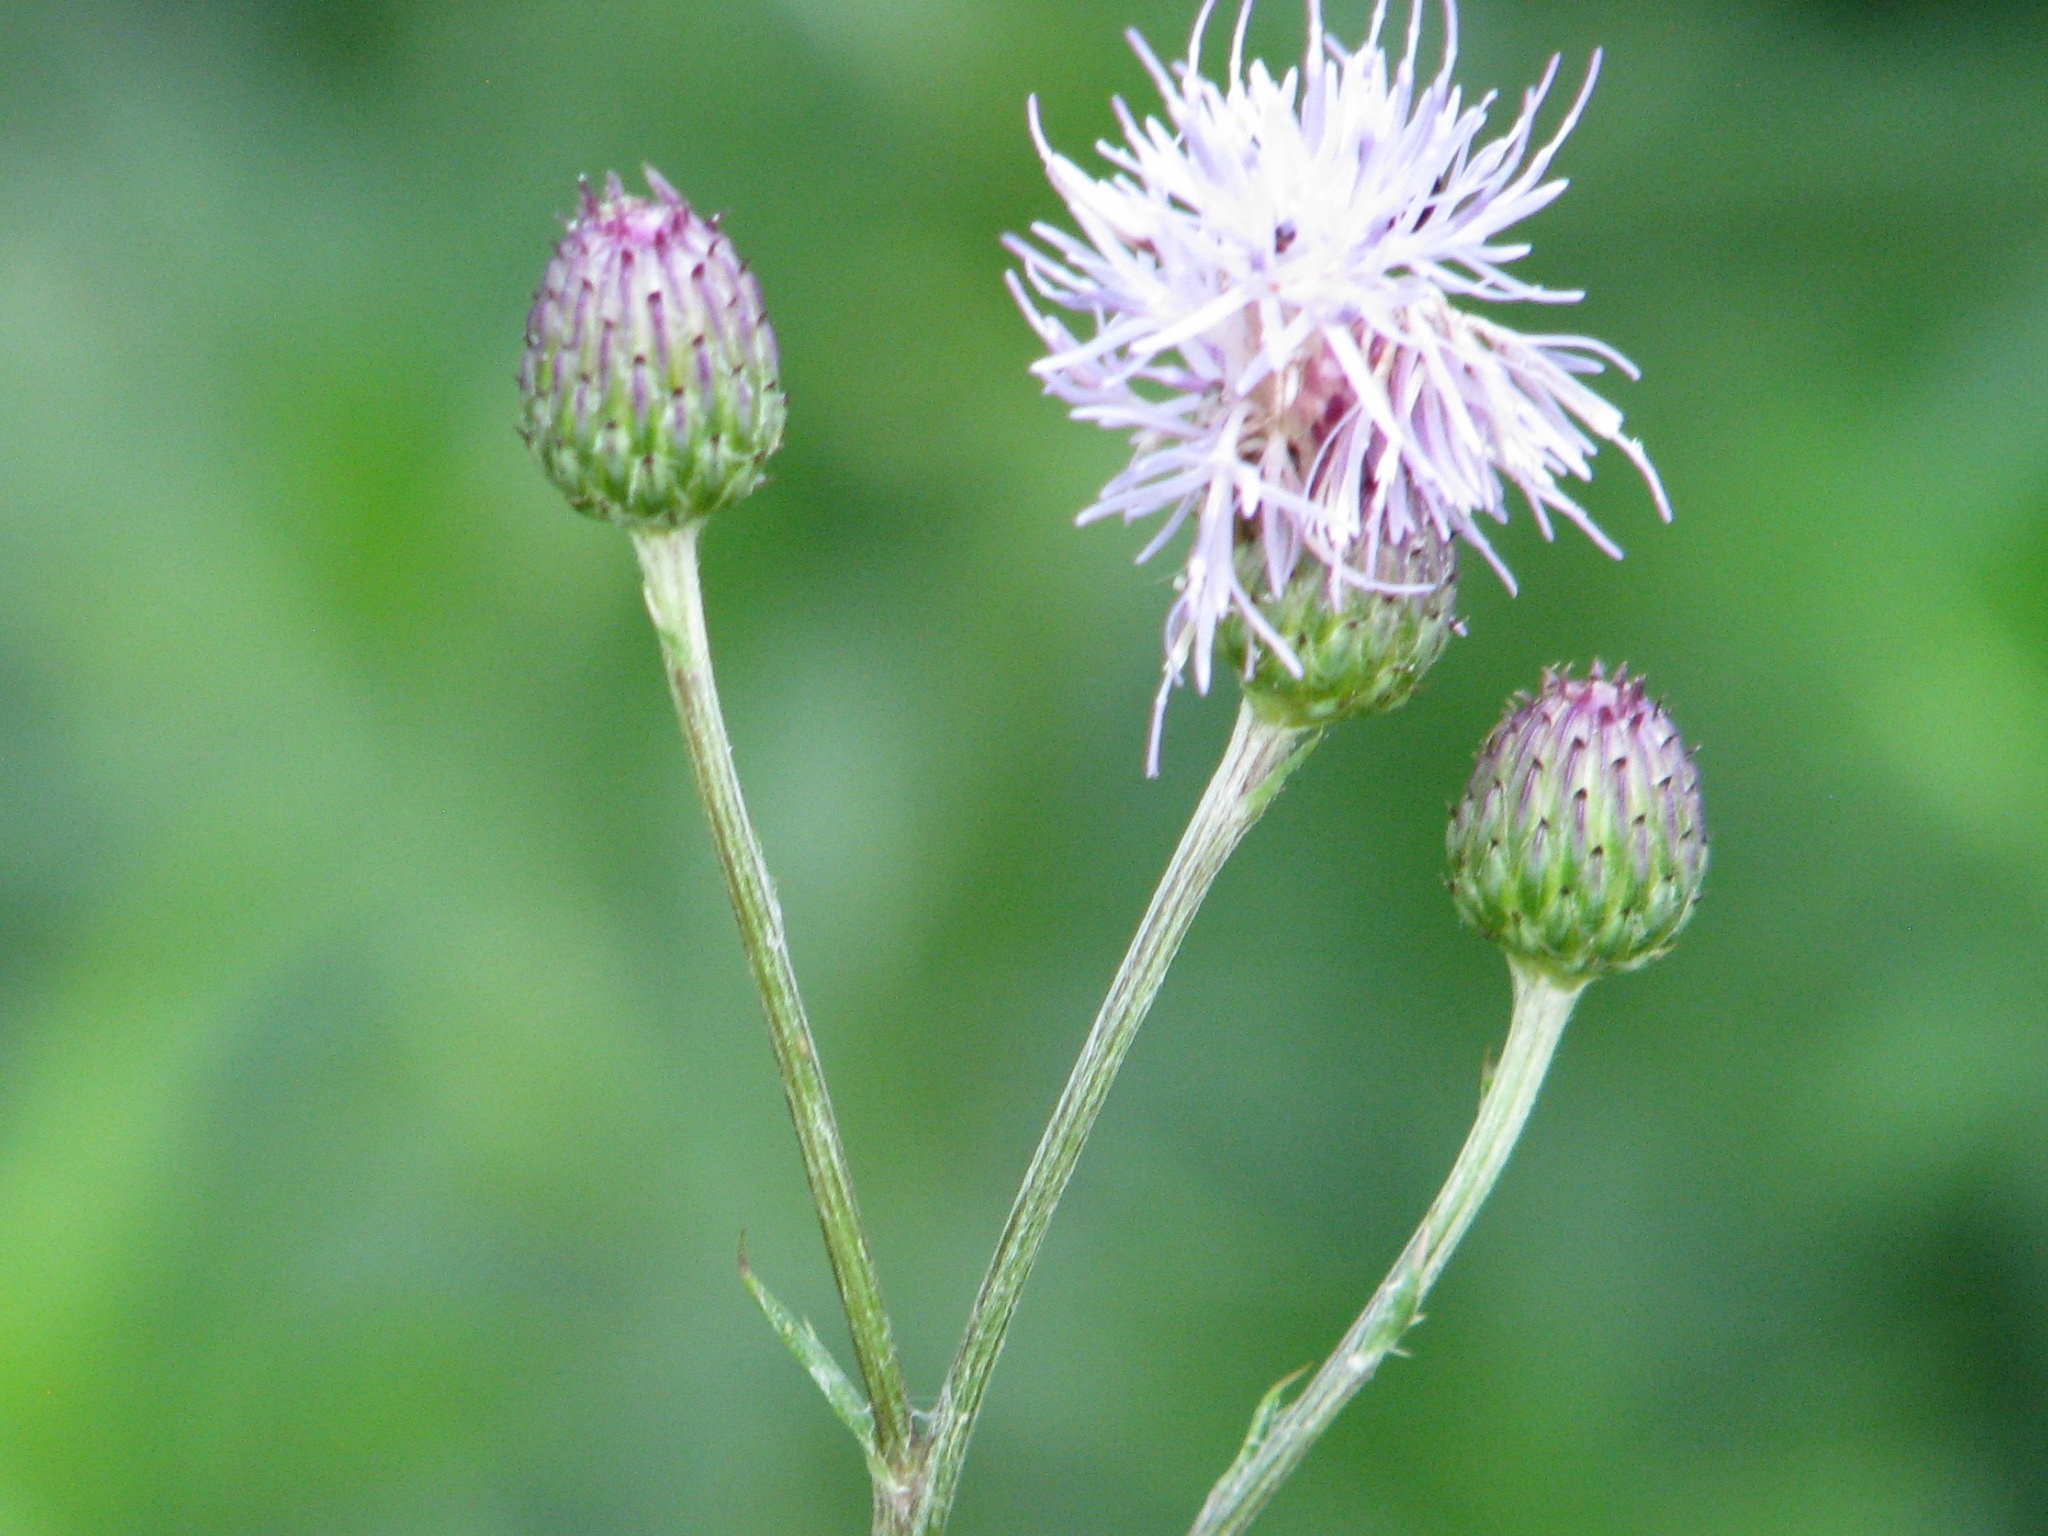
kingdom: Plantae
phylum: Tracheophyta
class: Magnoliopsida
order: Asterales
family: Asteraceae
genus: Cirsium
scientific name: Cirsium arvense
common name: Creeping thistle
